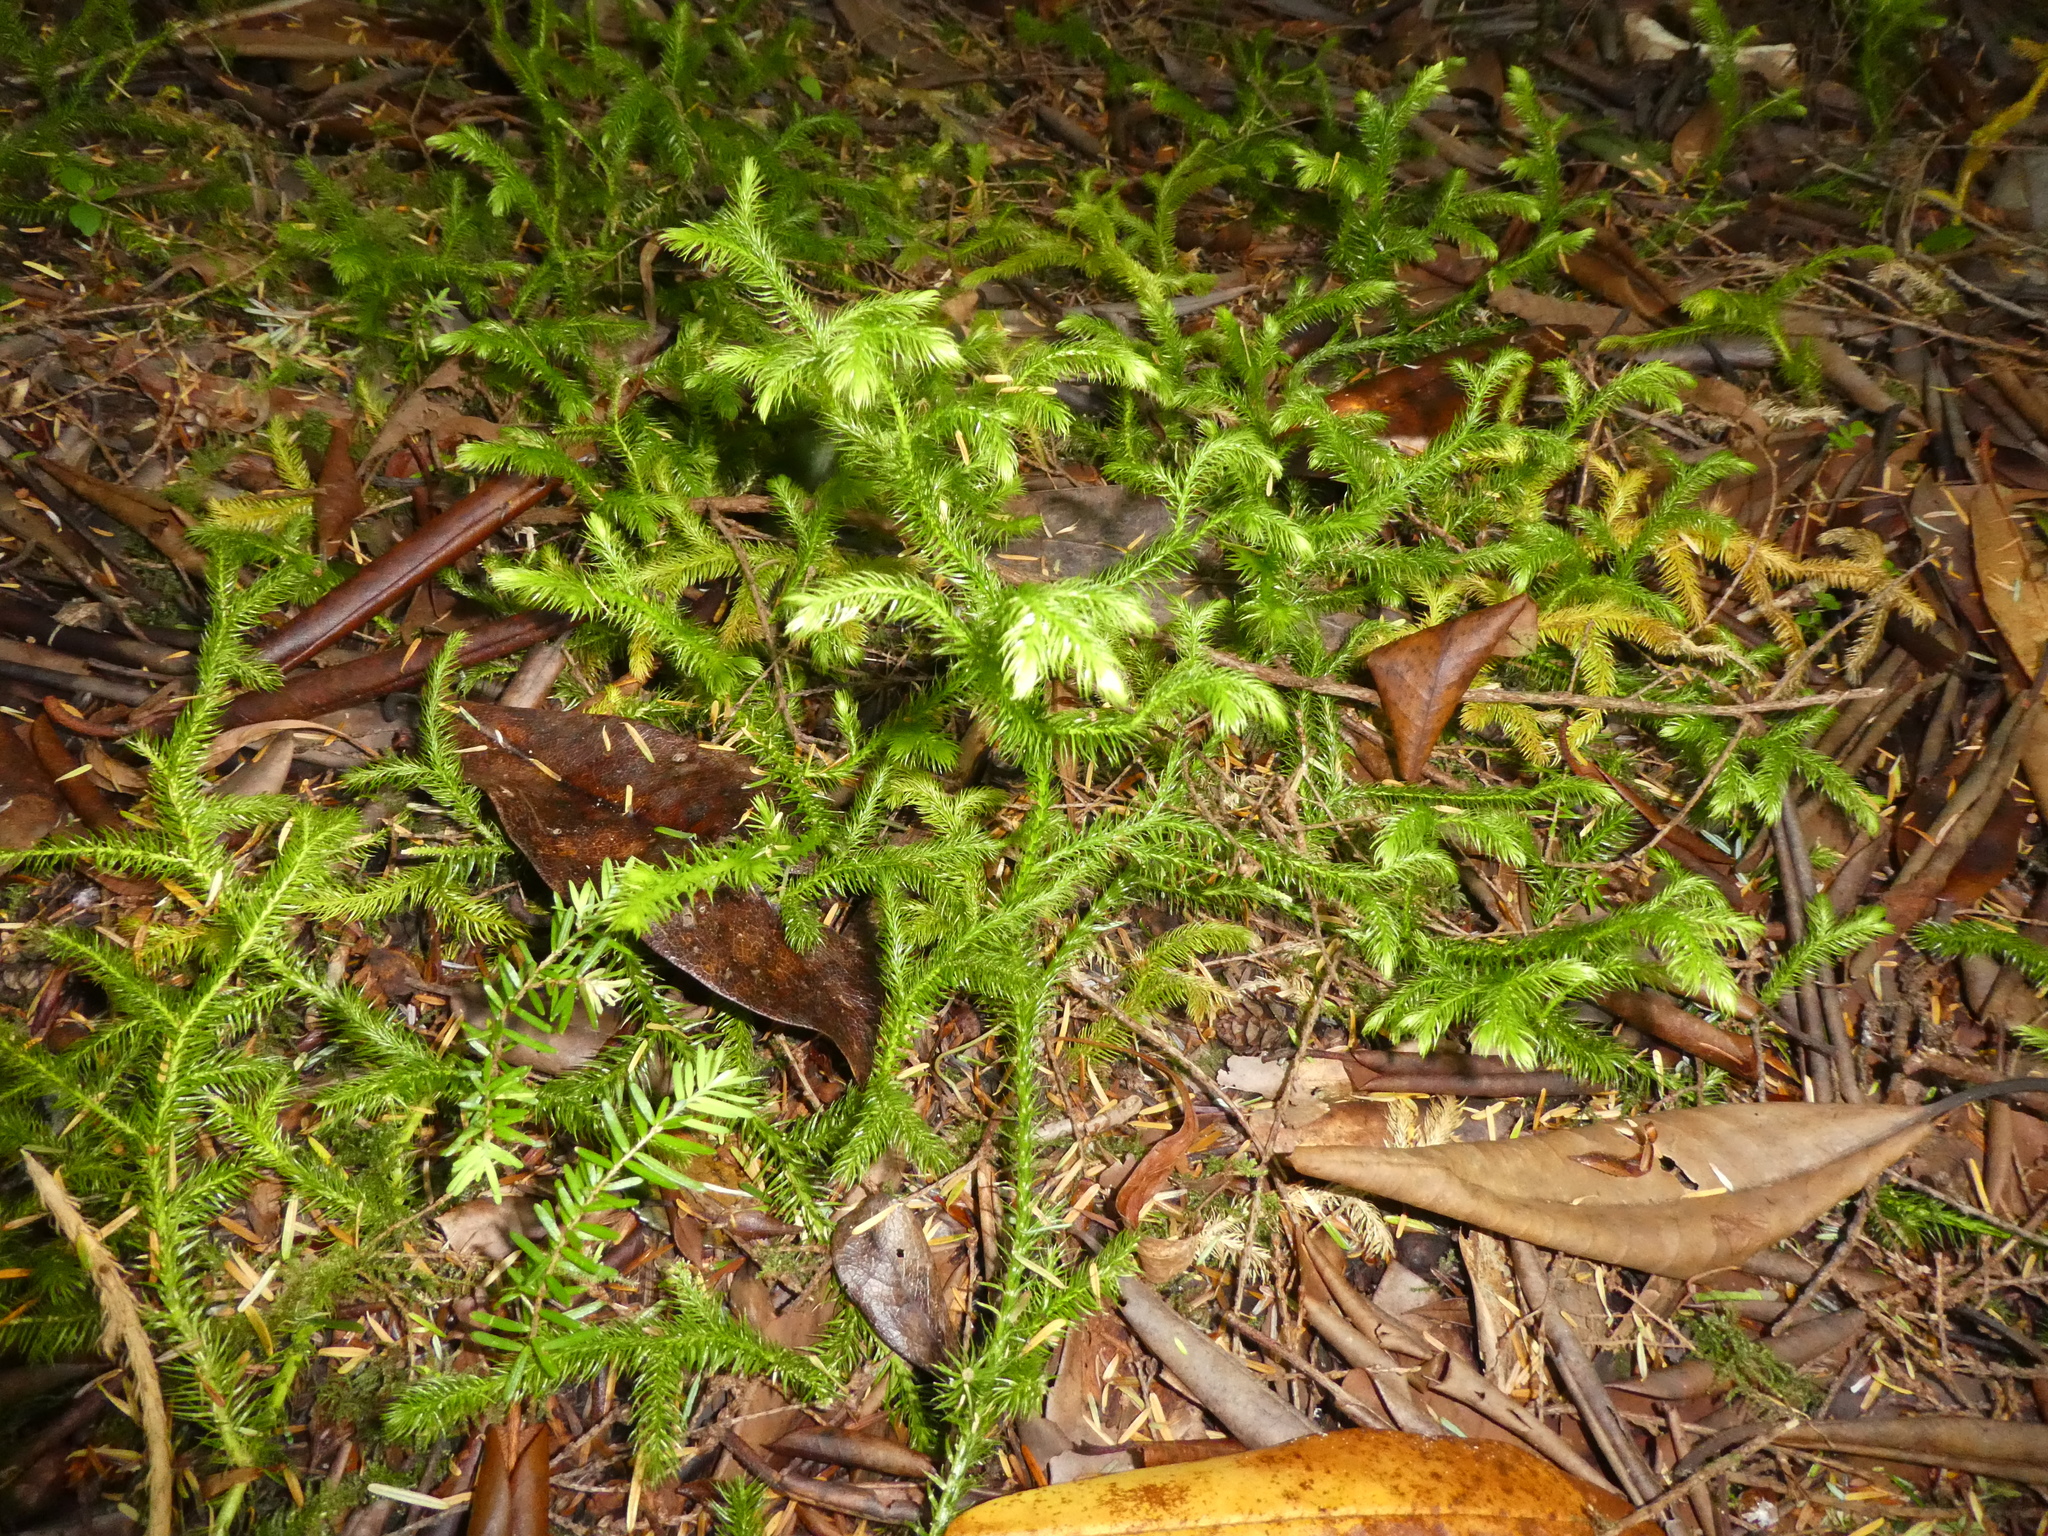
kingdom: Plantae
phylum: Tracheophyta
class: Lycopodiopsida
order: Lycopodiales
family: Lycopodiaceae
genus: Lycopodium
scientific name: Lycopodium clavatum
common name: Stag's-horn clubmoss
